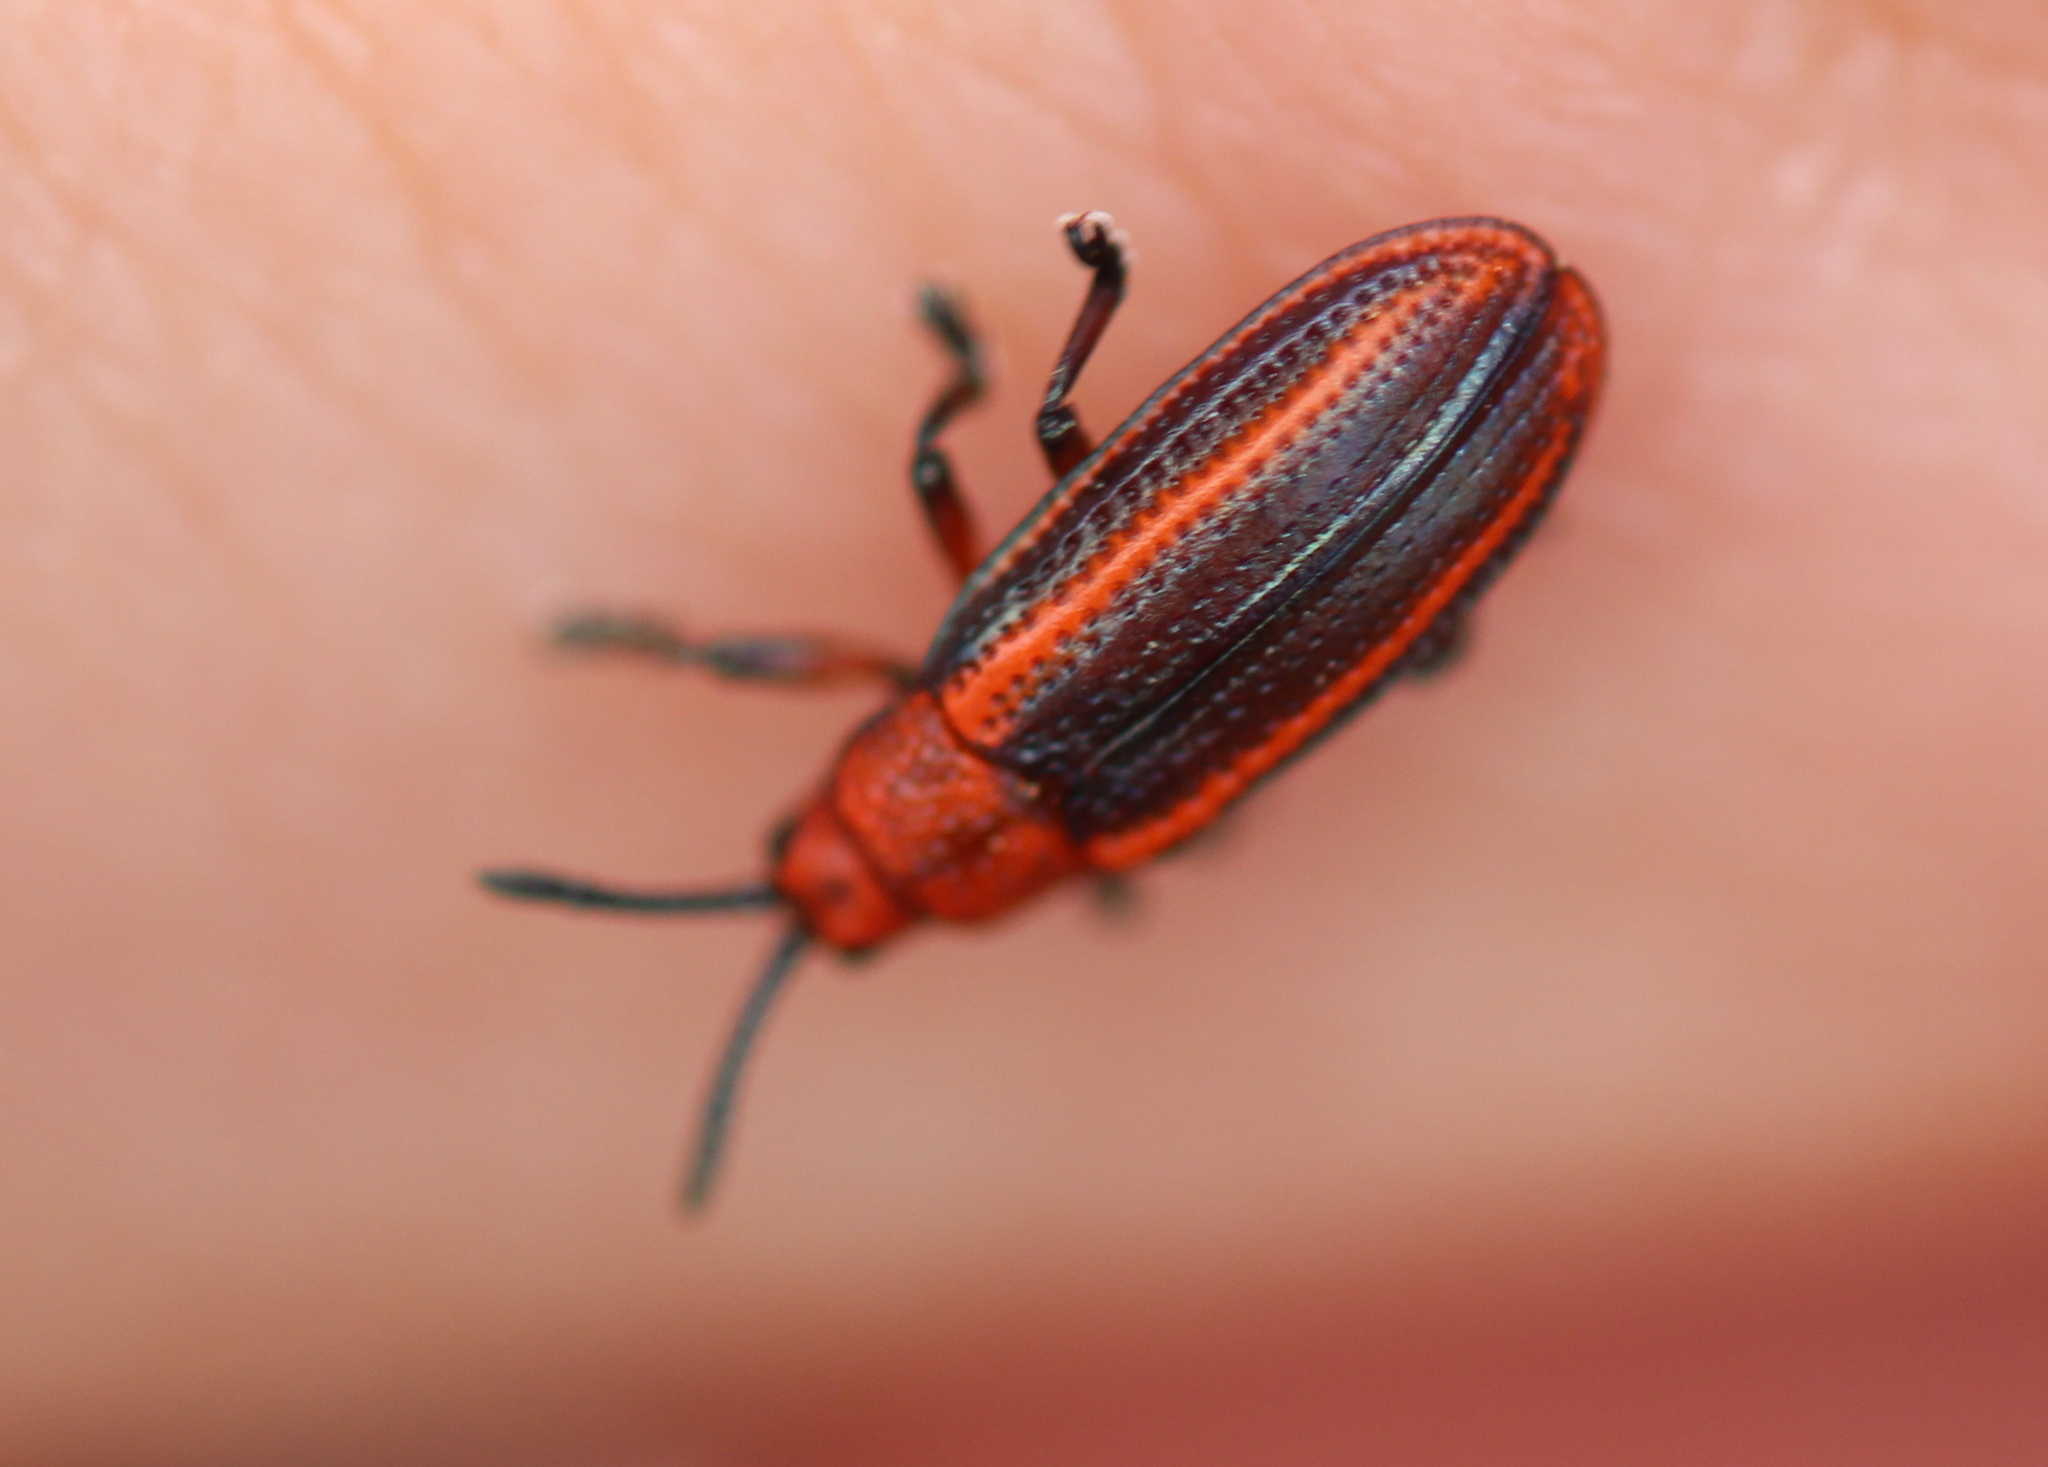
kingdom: Animalia
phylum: Arthropoda
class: Insecta
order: Coleoptera
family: Chrysomelidae
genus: Microrhopala
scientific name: Microrhopala vittata
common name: Goldenrod leaf miner beetle
